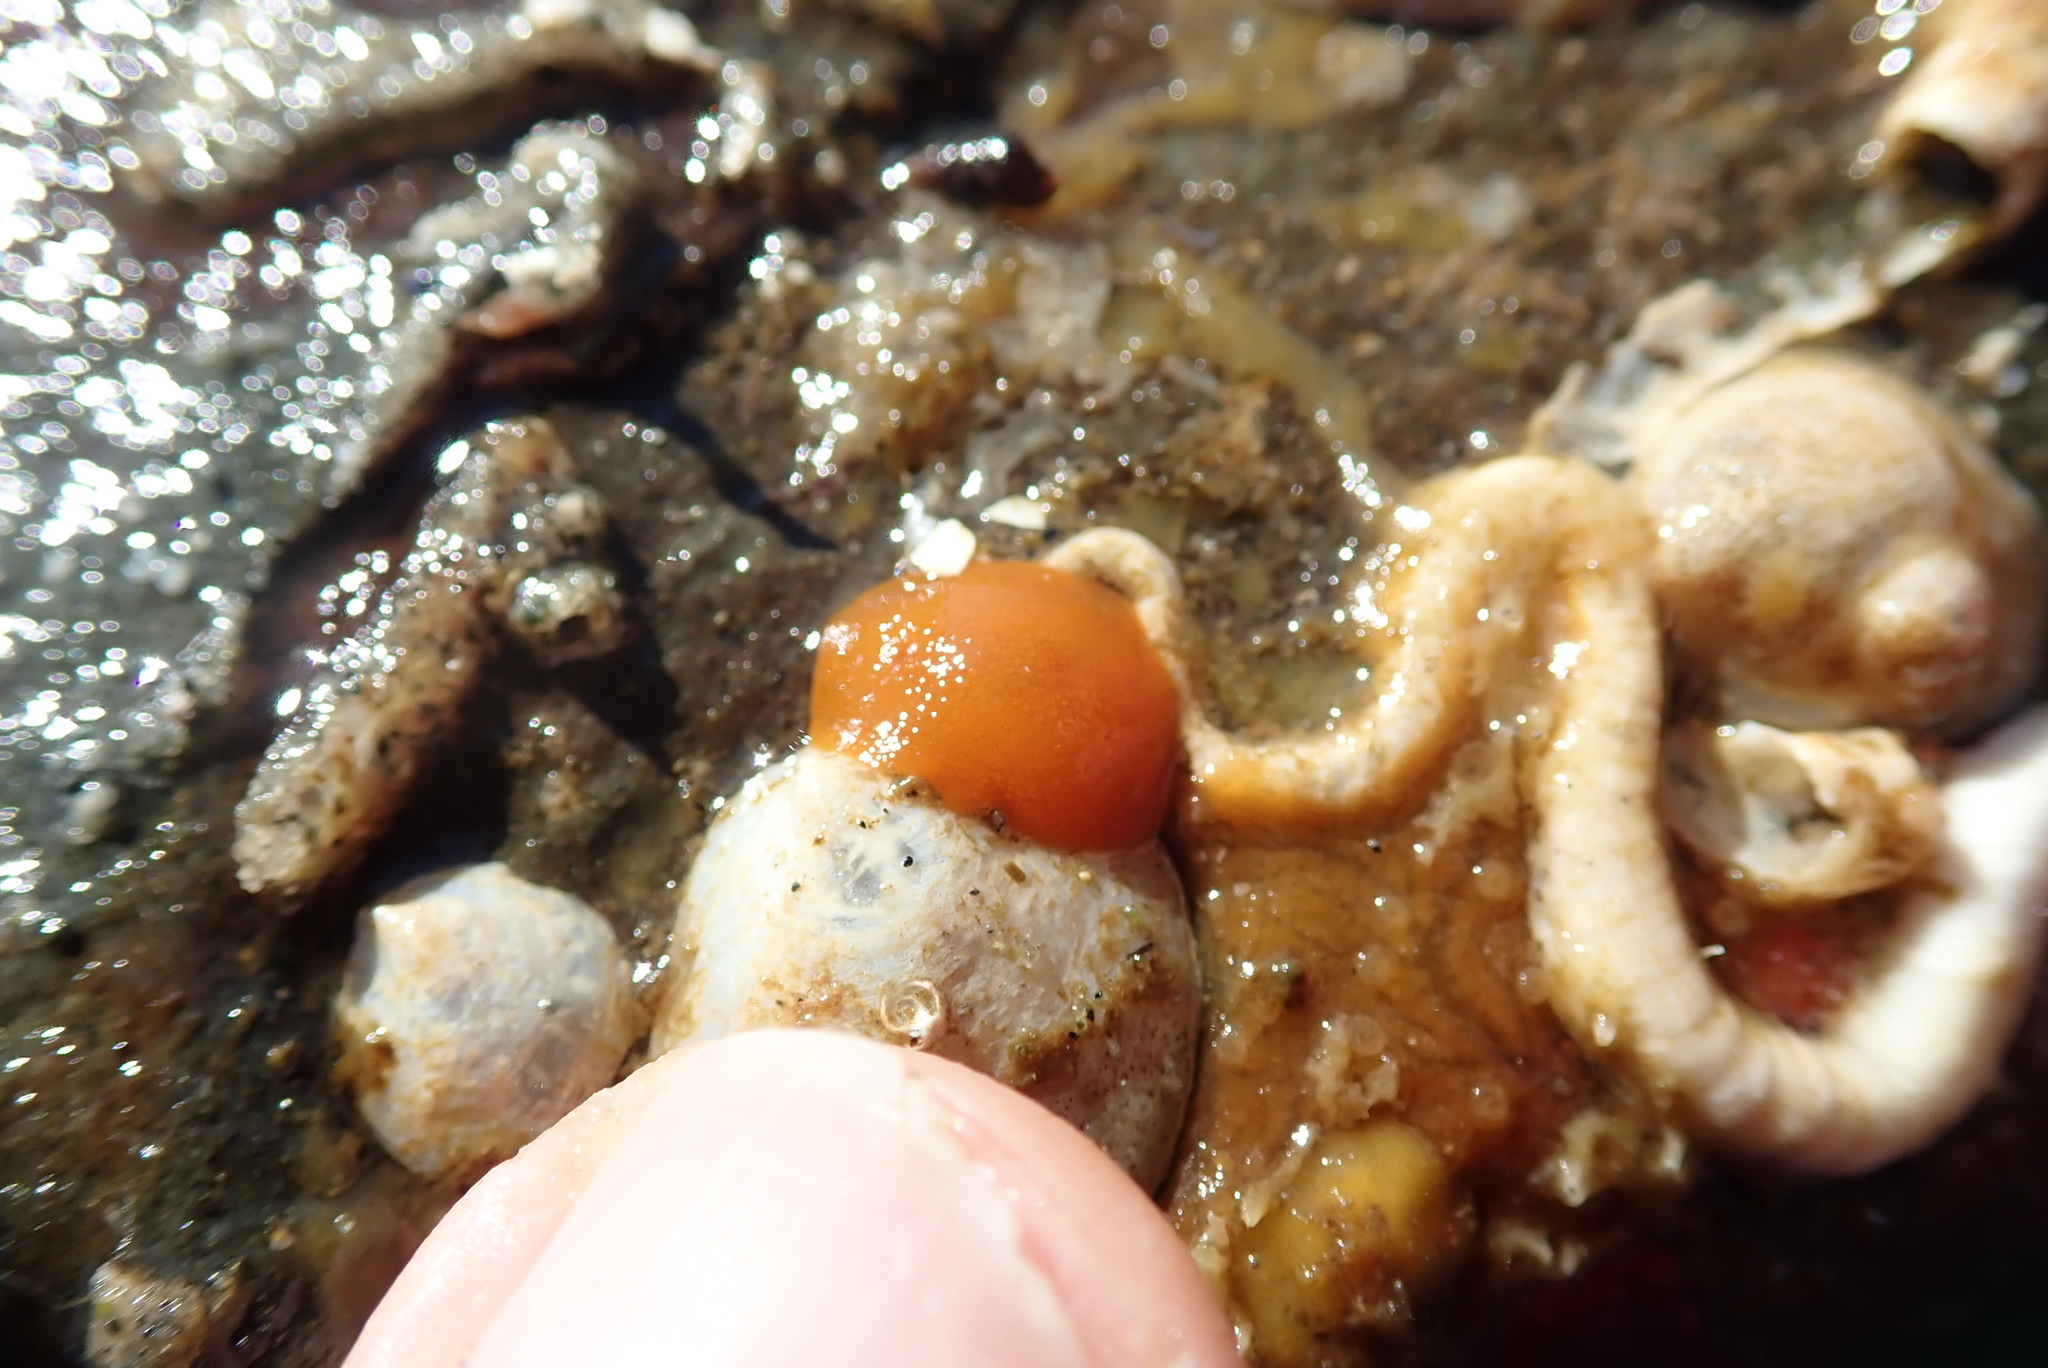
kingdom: Animalia
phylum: Mollusca
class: Gastropoda
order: Nudibranchia
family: Discodorididae
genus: Rostanga
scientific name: Rostanga pulchra
